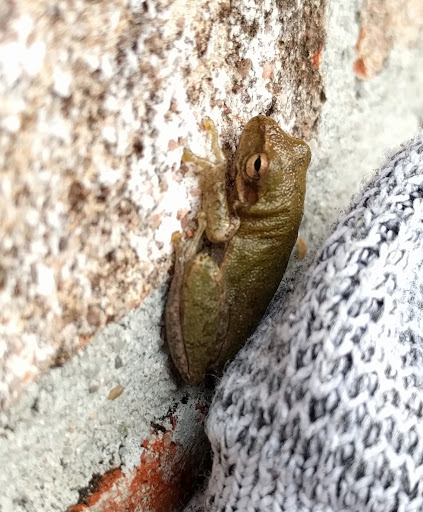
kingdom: Animalia
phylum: Chordata
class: Amphibia
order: Anura
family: Hylidae
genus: Dryophytes
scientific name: Dryophytes squirellus
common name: Squirrel treefrog
